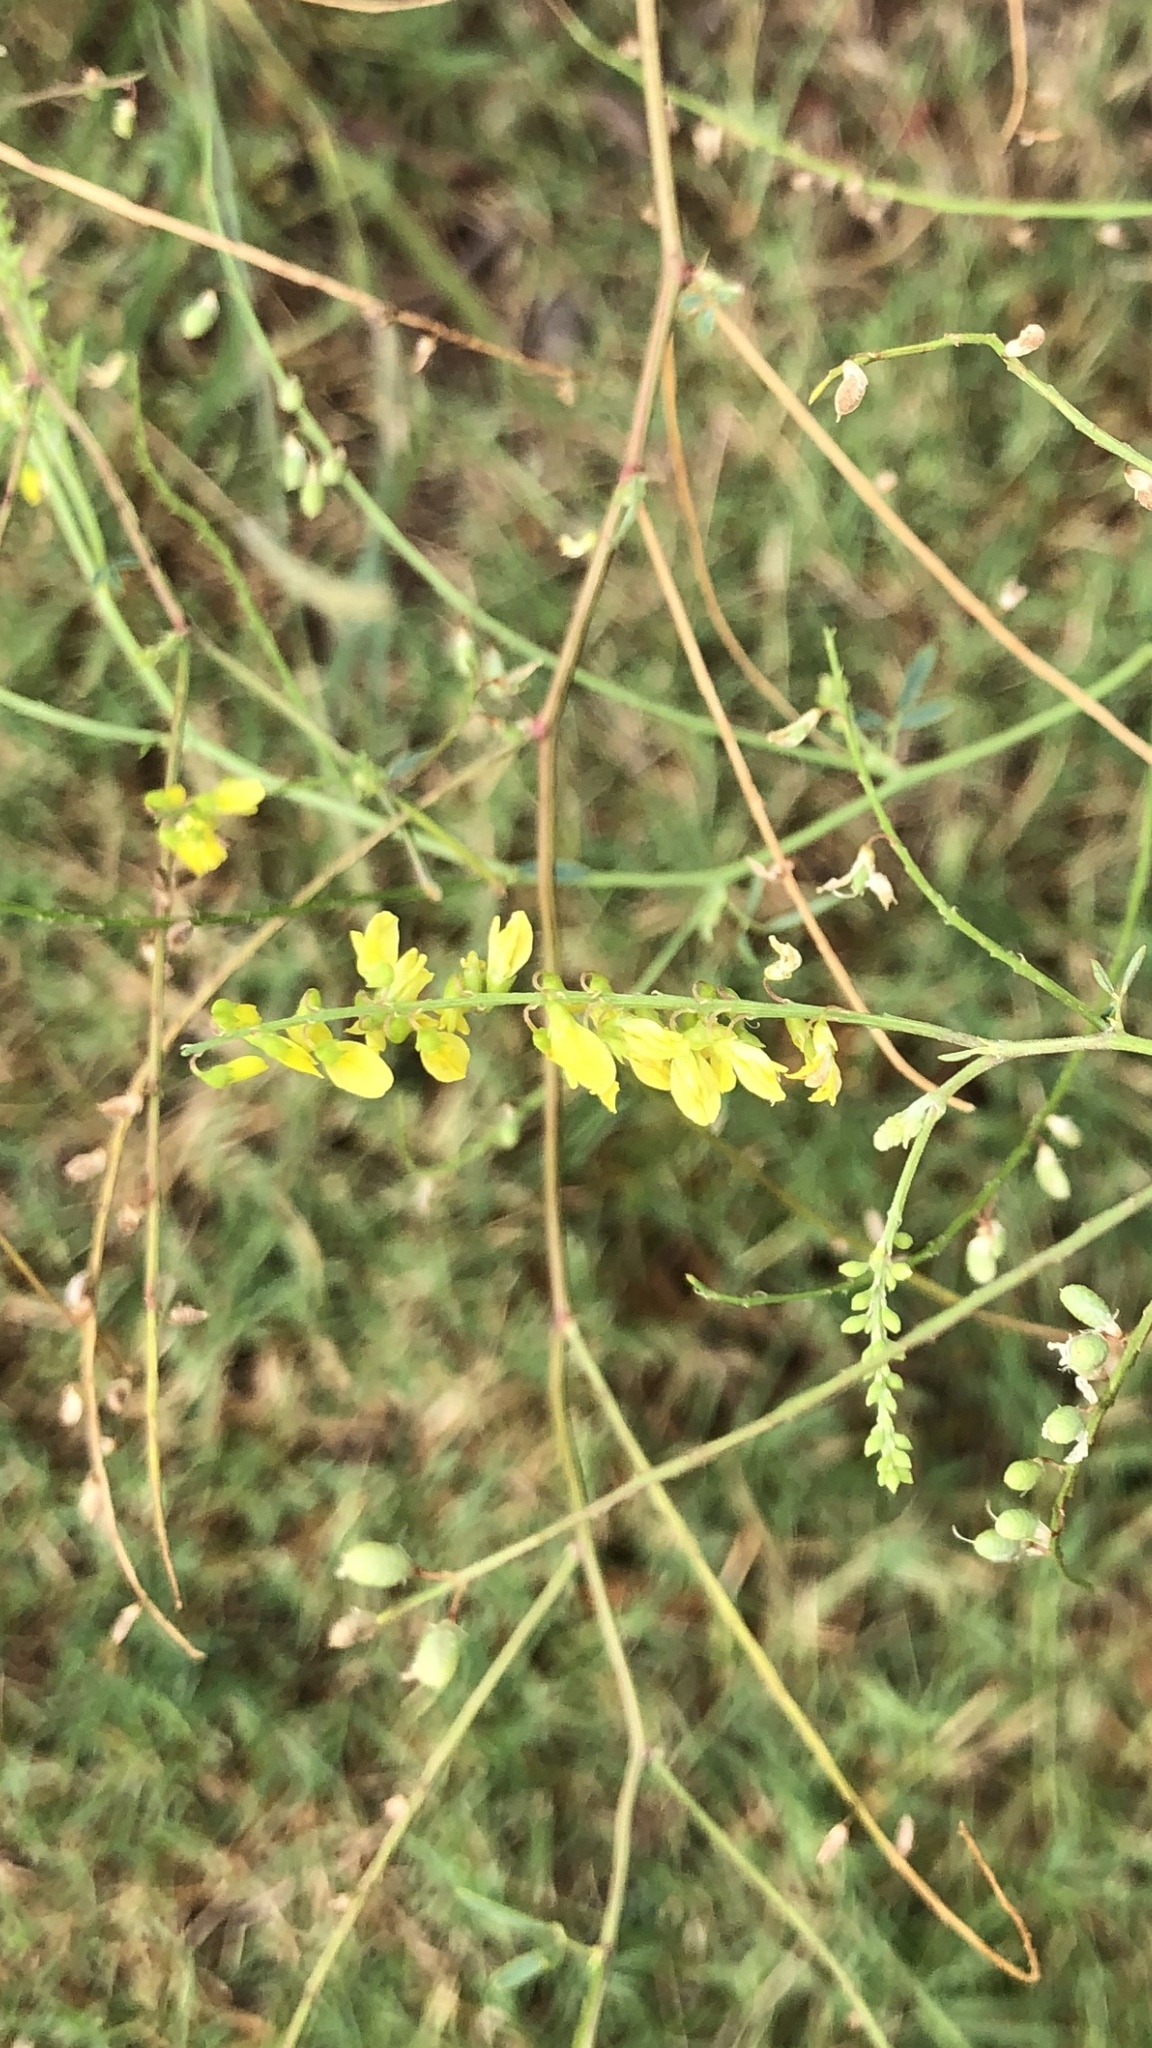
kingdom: Plantae
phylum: Tracheophyta
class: Magnoliopsida
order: Fabales
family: Fabaceae
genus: Melilotus
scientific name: Melilotus officinalis
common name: Sweetclover
